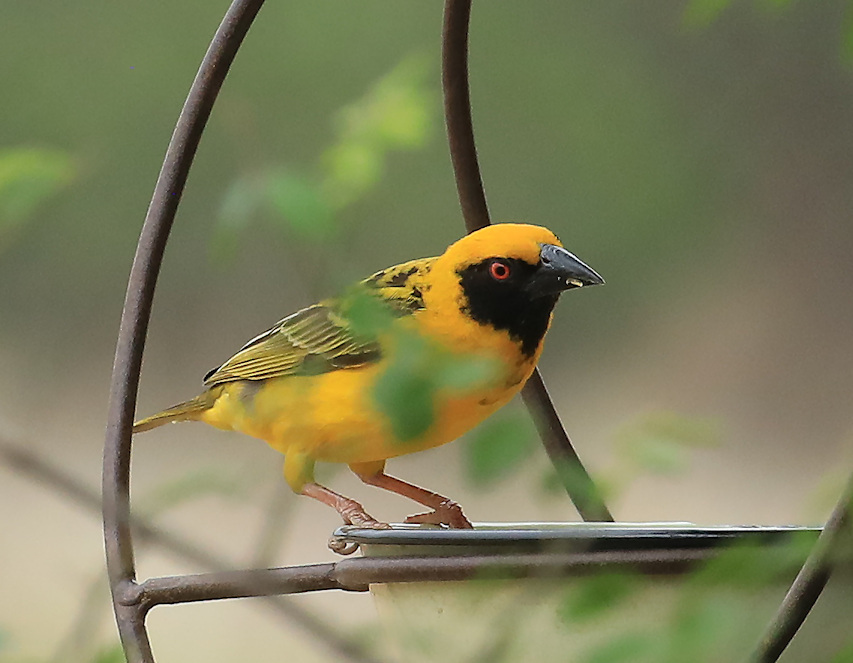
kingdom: Animalia
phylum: Chordata
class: Aves
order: Passeriformes
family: Ploceidae
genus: Ploceus
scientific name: Ploceus cucullatus
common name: Village weaver
